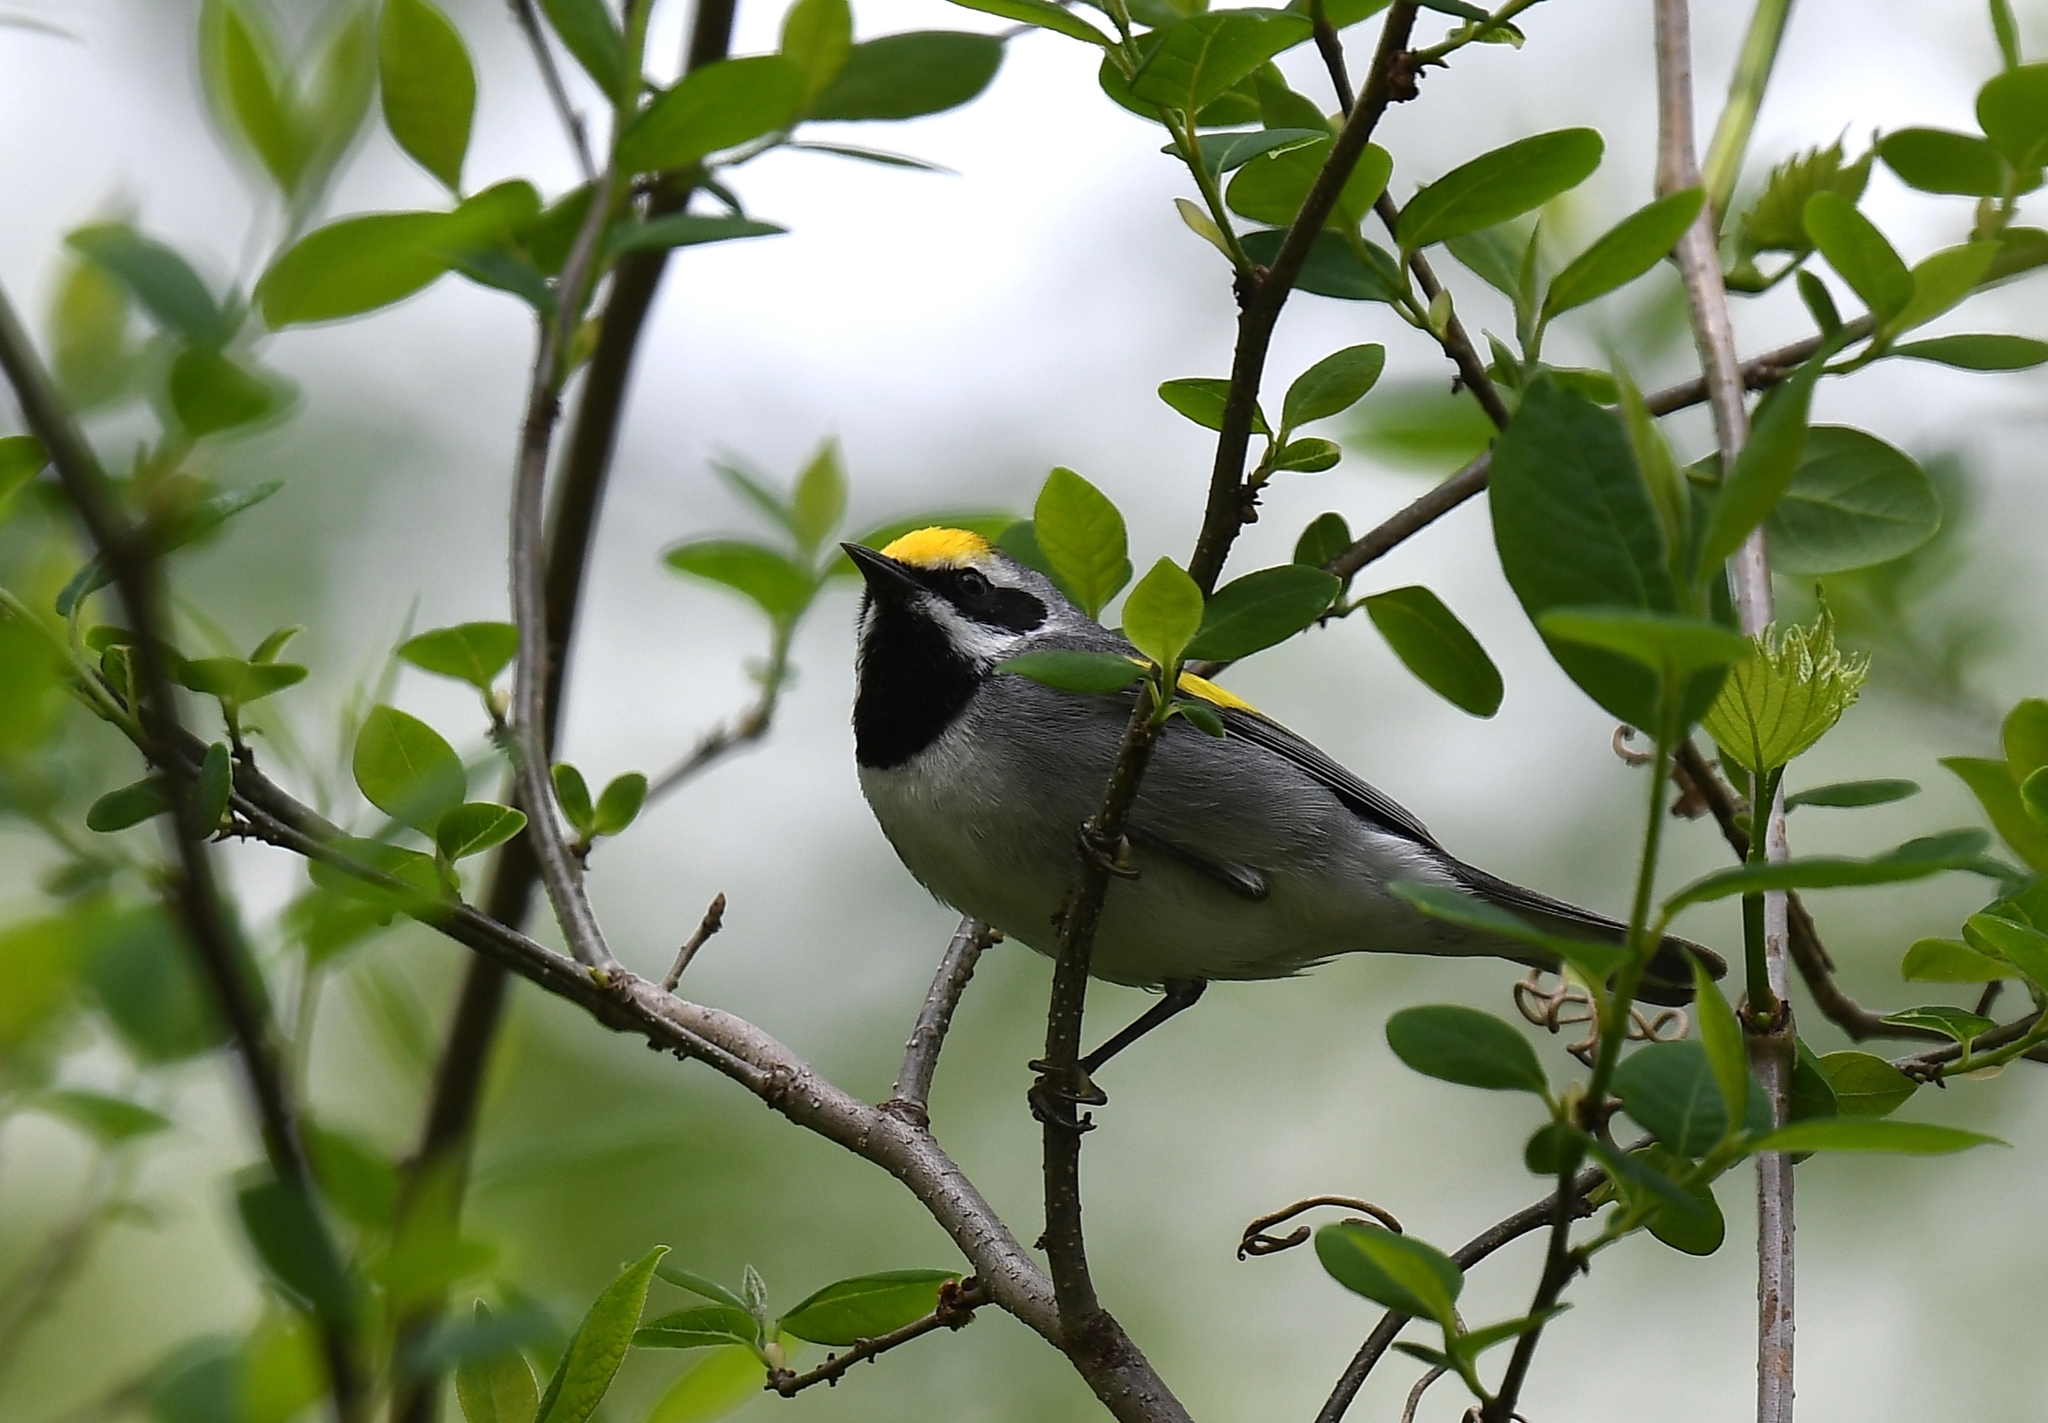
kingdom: Animalia
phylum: Chordata
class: Aves
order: Passeriformes
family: Parulidae
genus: Vermivora
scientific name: Vermivora chrysoptera
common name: Golden-winged warbler
